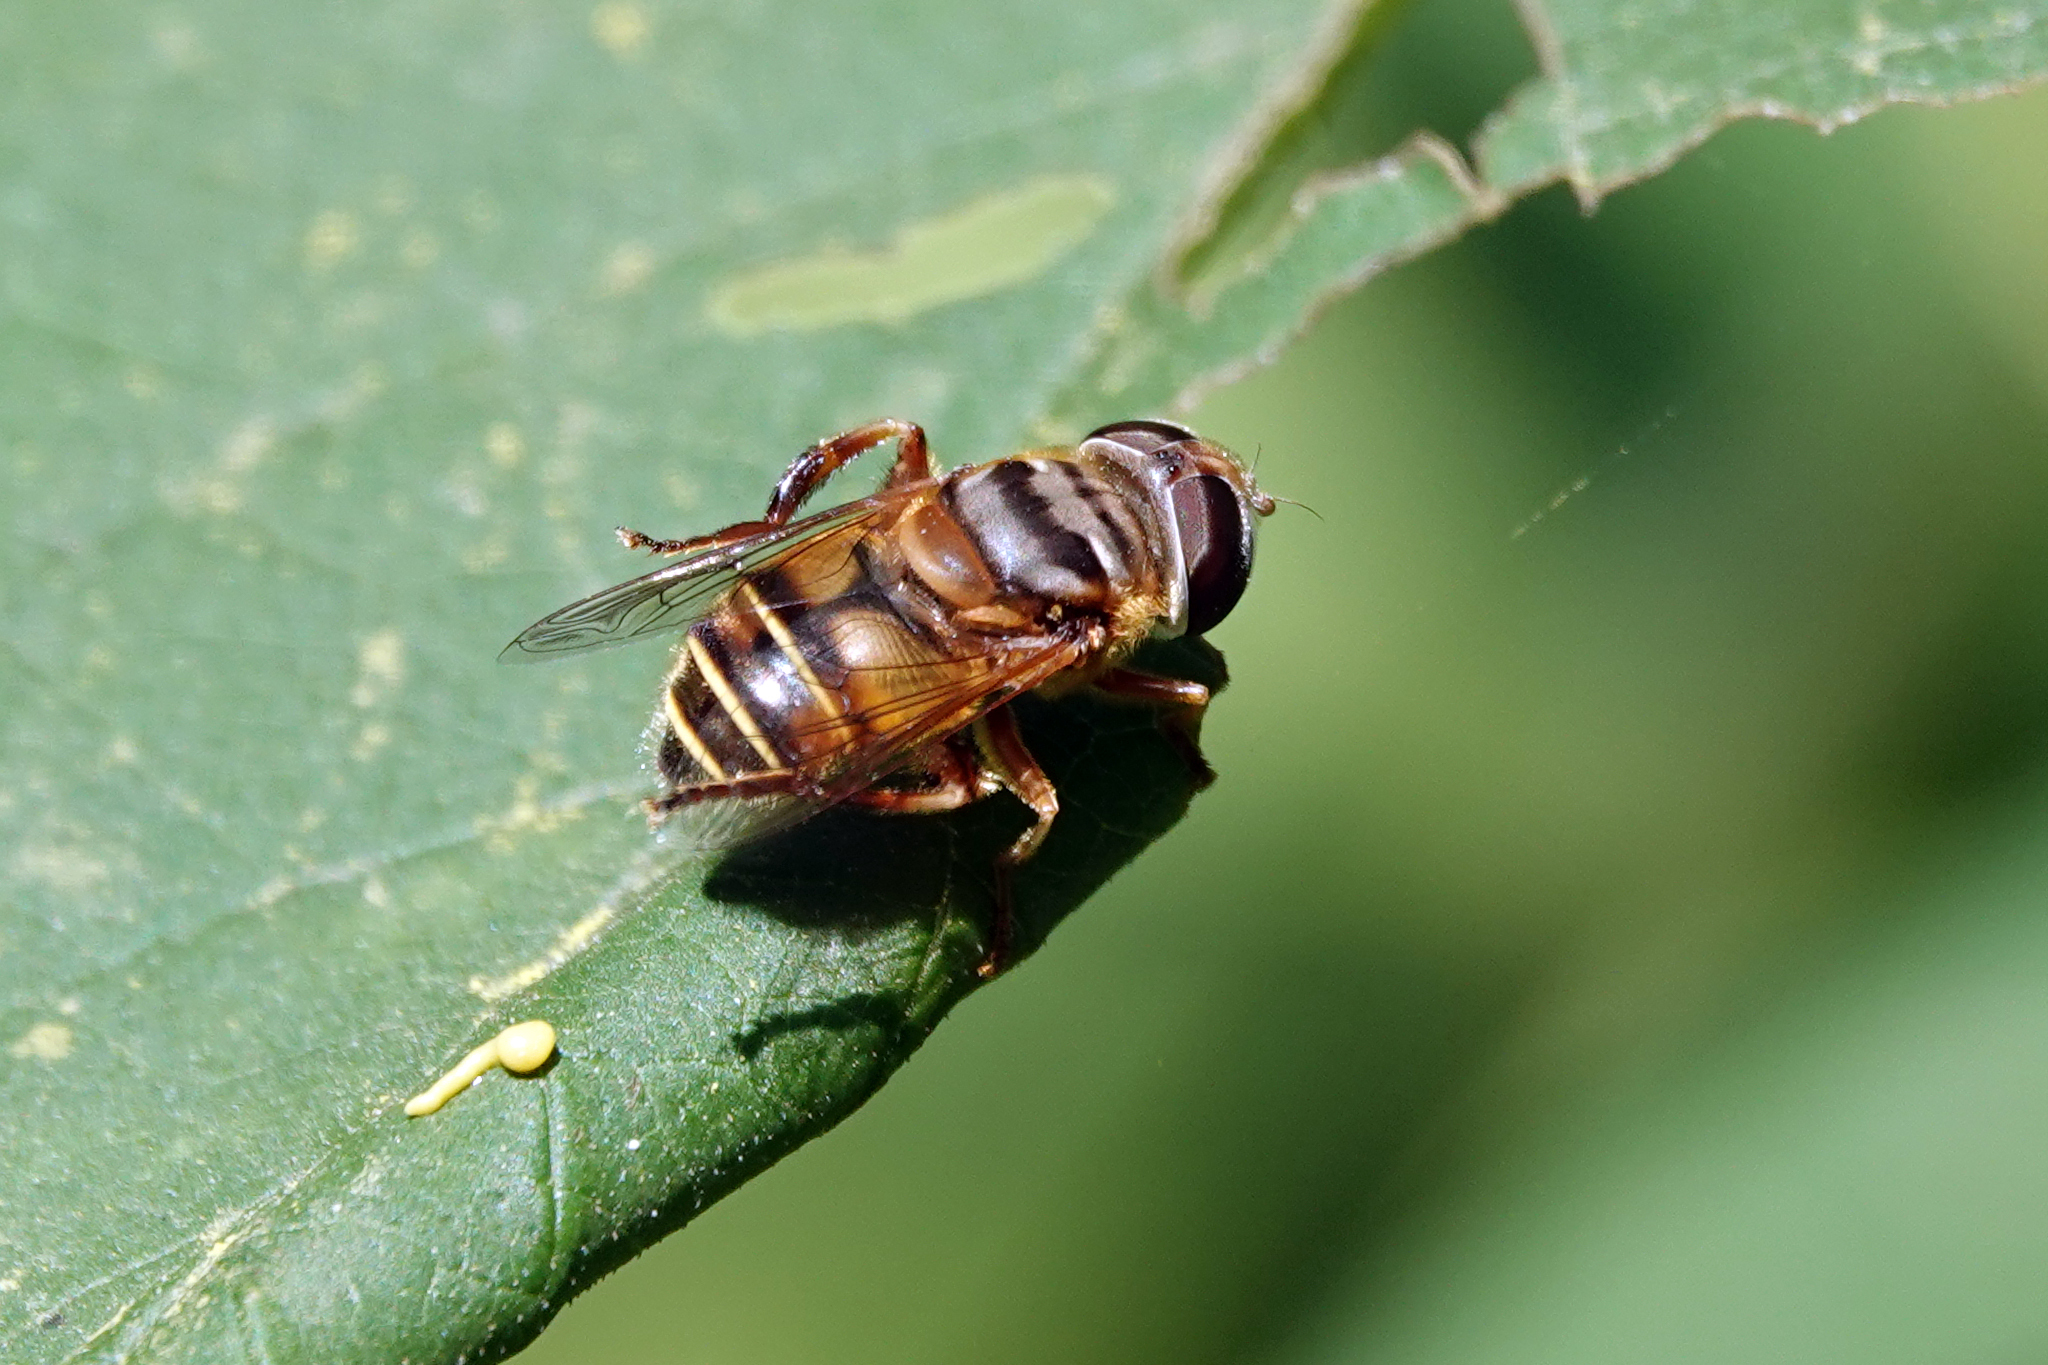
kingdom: Animalia
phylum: Arthropoda
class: Insecta
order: Diptera
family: Syrphidae
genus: Palpada
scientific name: Palpada vinetorum
